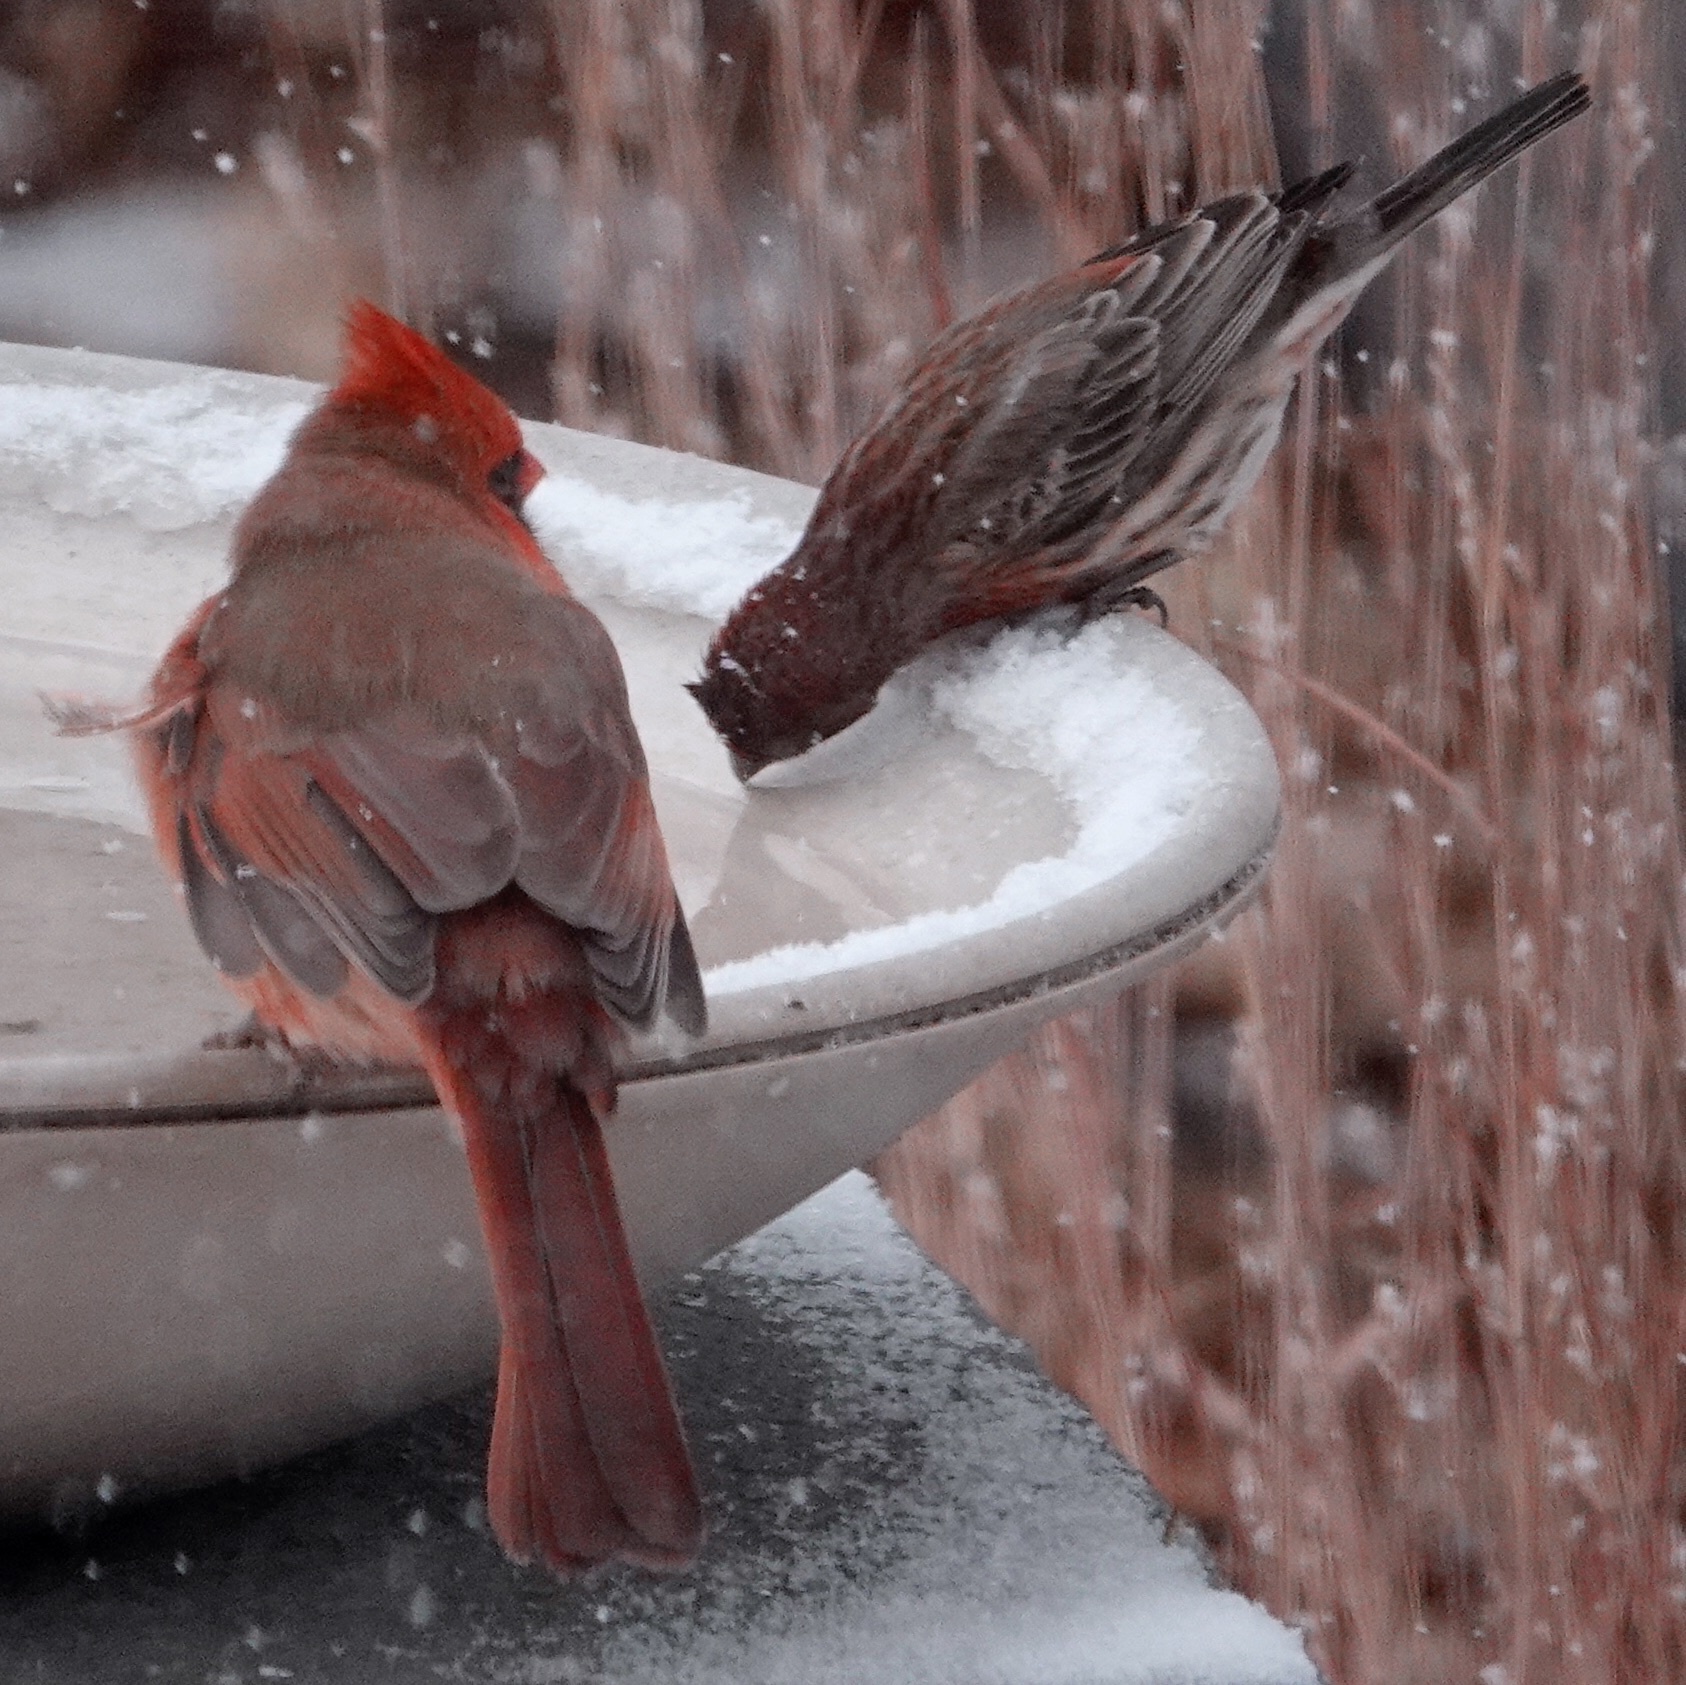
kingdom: Animalia
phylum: Chordata
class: Aves
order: Passeriformes
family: Cardinalidae
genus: Cardinalis
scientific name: Cardinalis cardinalis
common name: Northern cardinal
